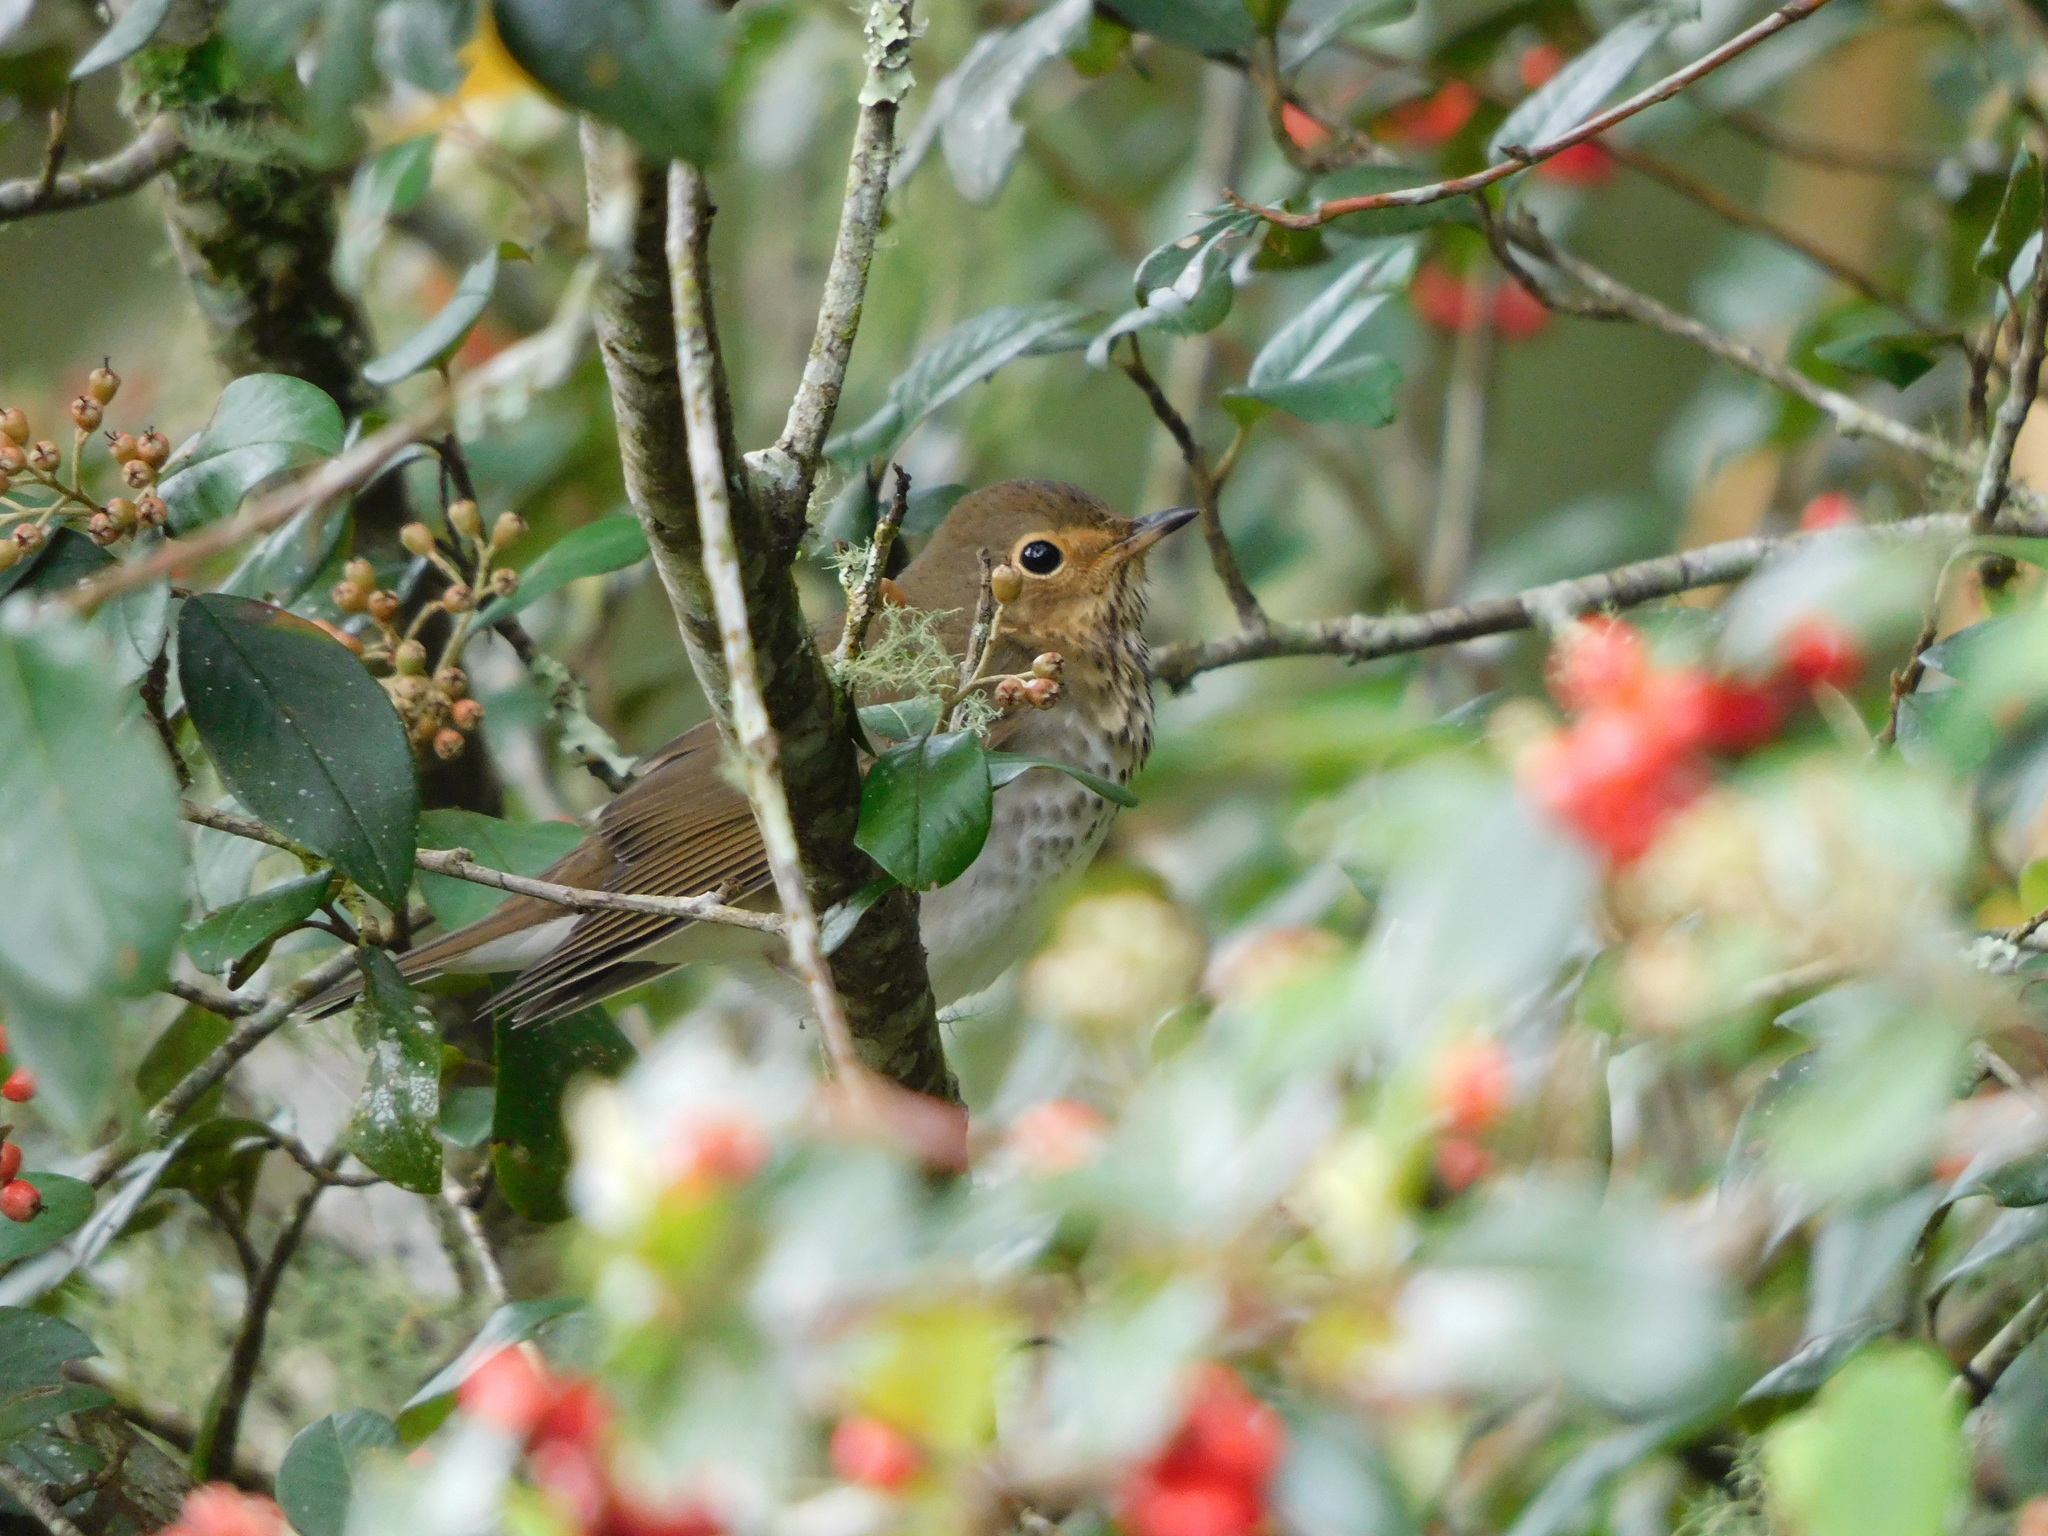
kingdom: Animalia
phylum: Chordata
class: Aves
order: Passeriformes
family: Turdidae
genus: Catharus
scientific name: Catharus ustulatus
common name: Swainson's thrush
